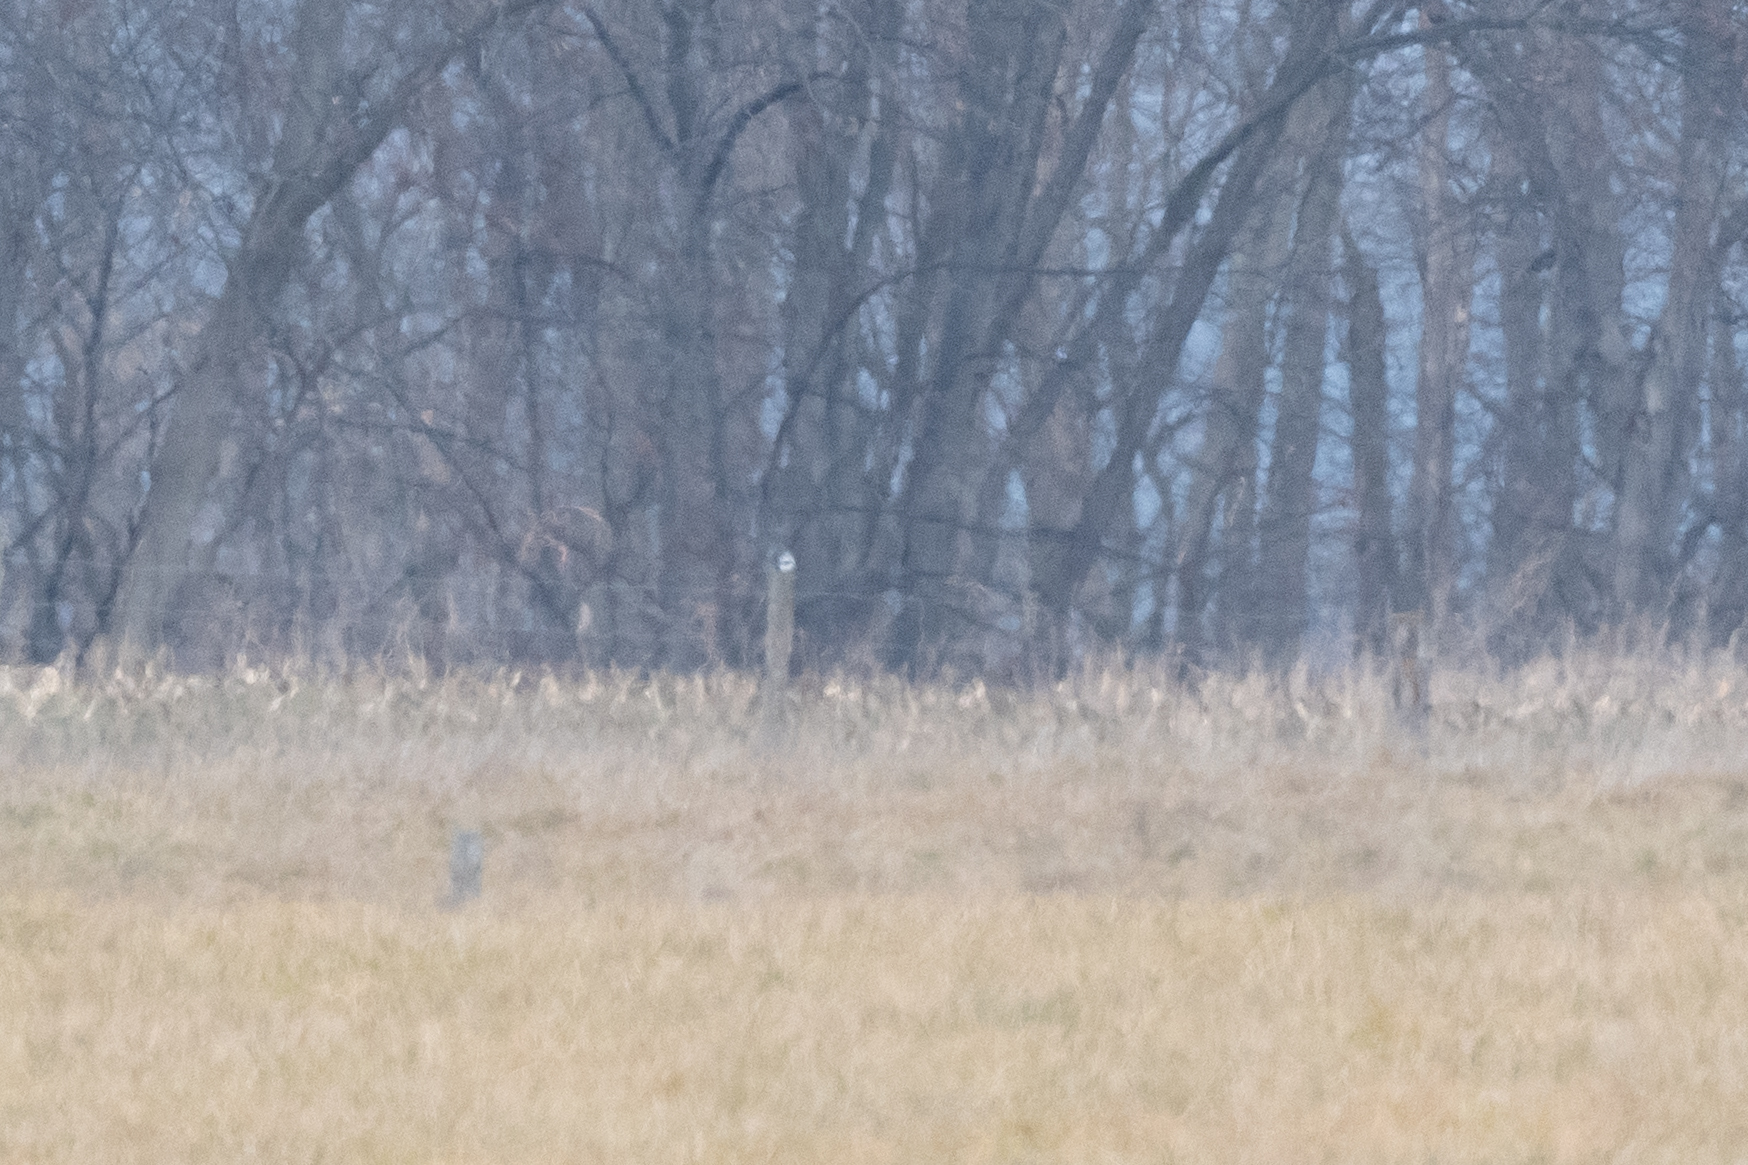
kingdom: Animalia
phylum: Chordata
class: Aves
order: Passeriformes
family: Laniidae
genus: Lanius
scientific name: Lanius ludovicianus
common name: Loggerhead shrike
